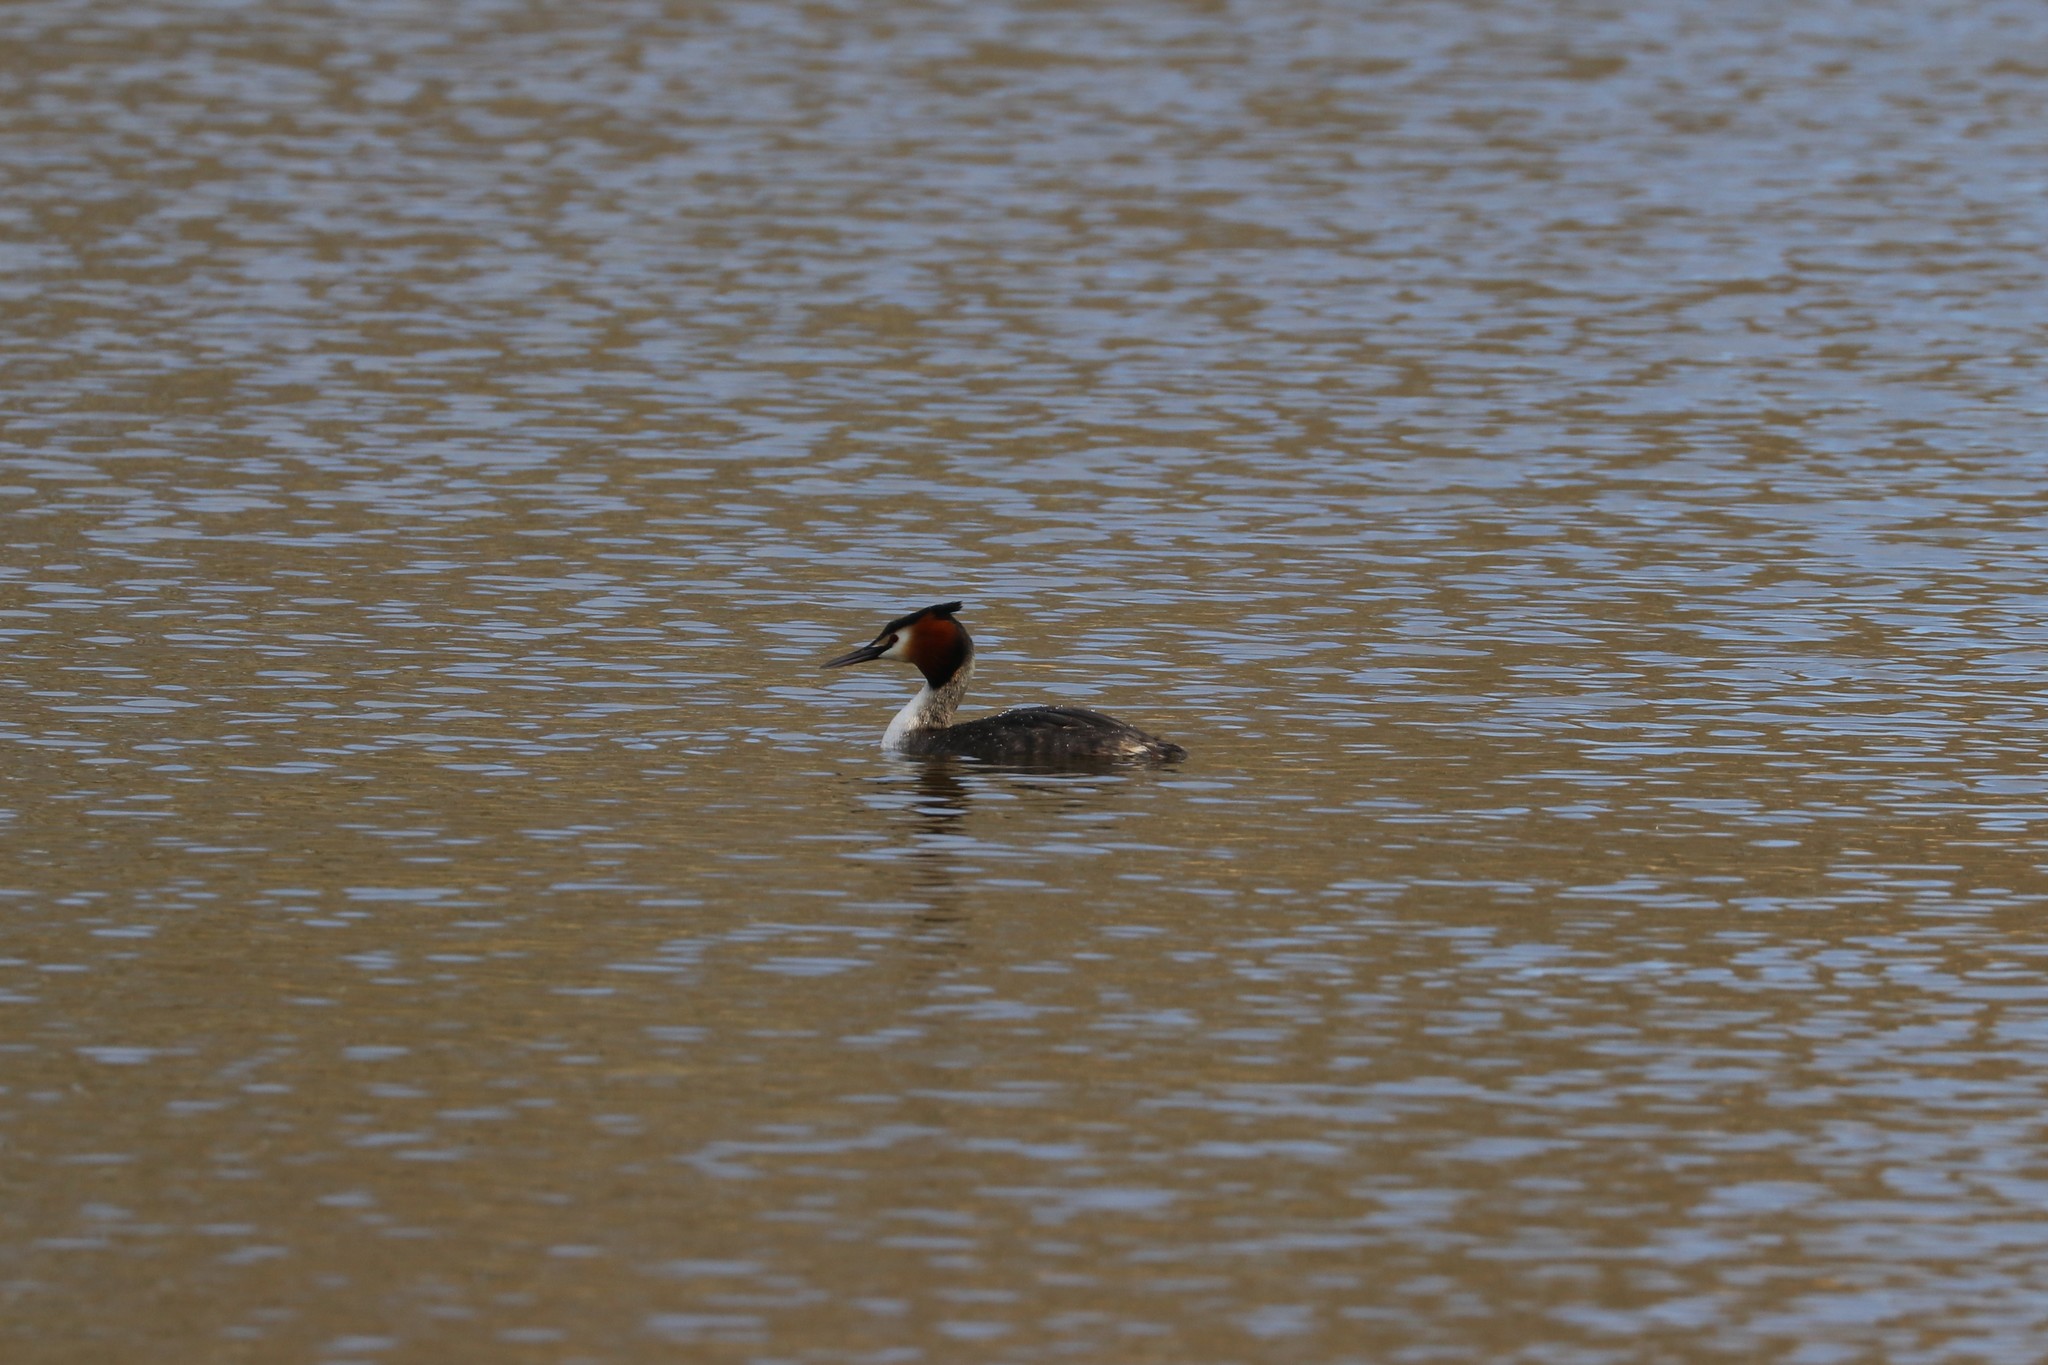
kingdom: Animalia
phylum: Chordata
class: Aves
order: Podicipediformes
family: Podicipedidae
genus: Podiceps
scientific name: Podiceps cristatus
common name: Great crested grebe
